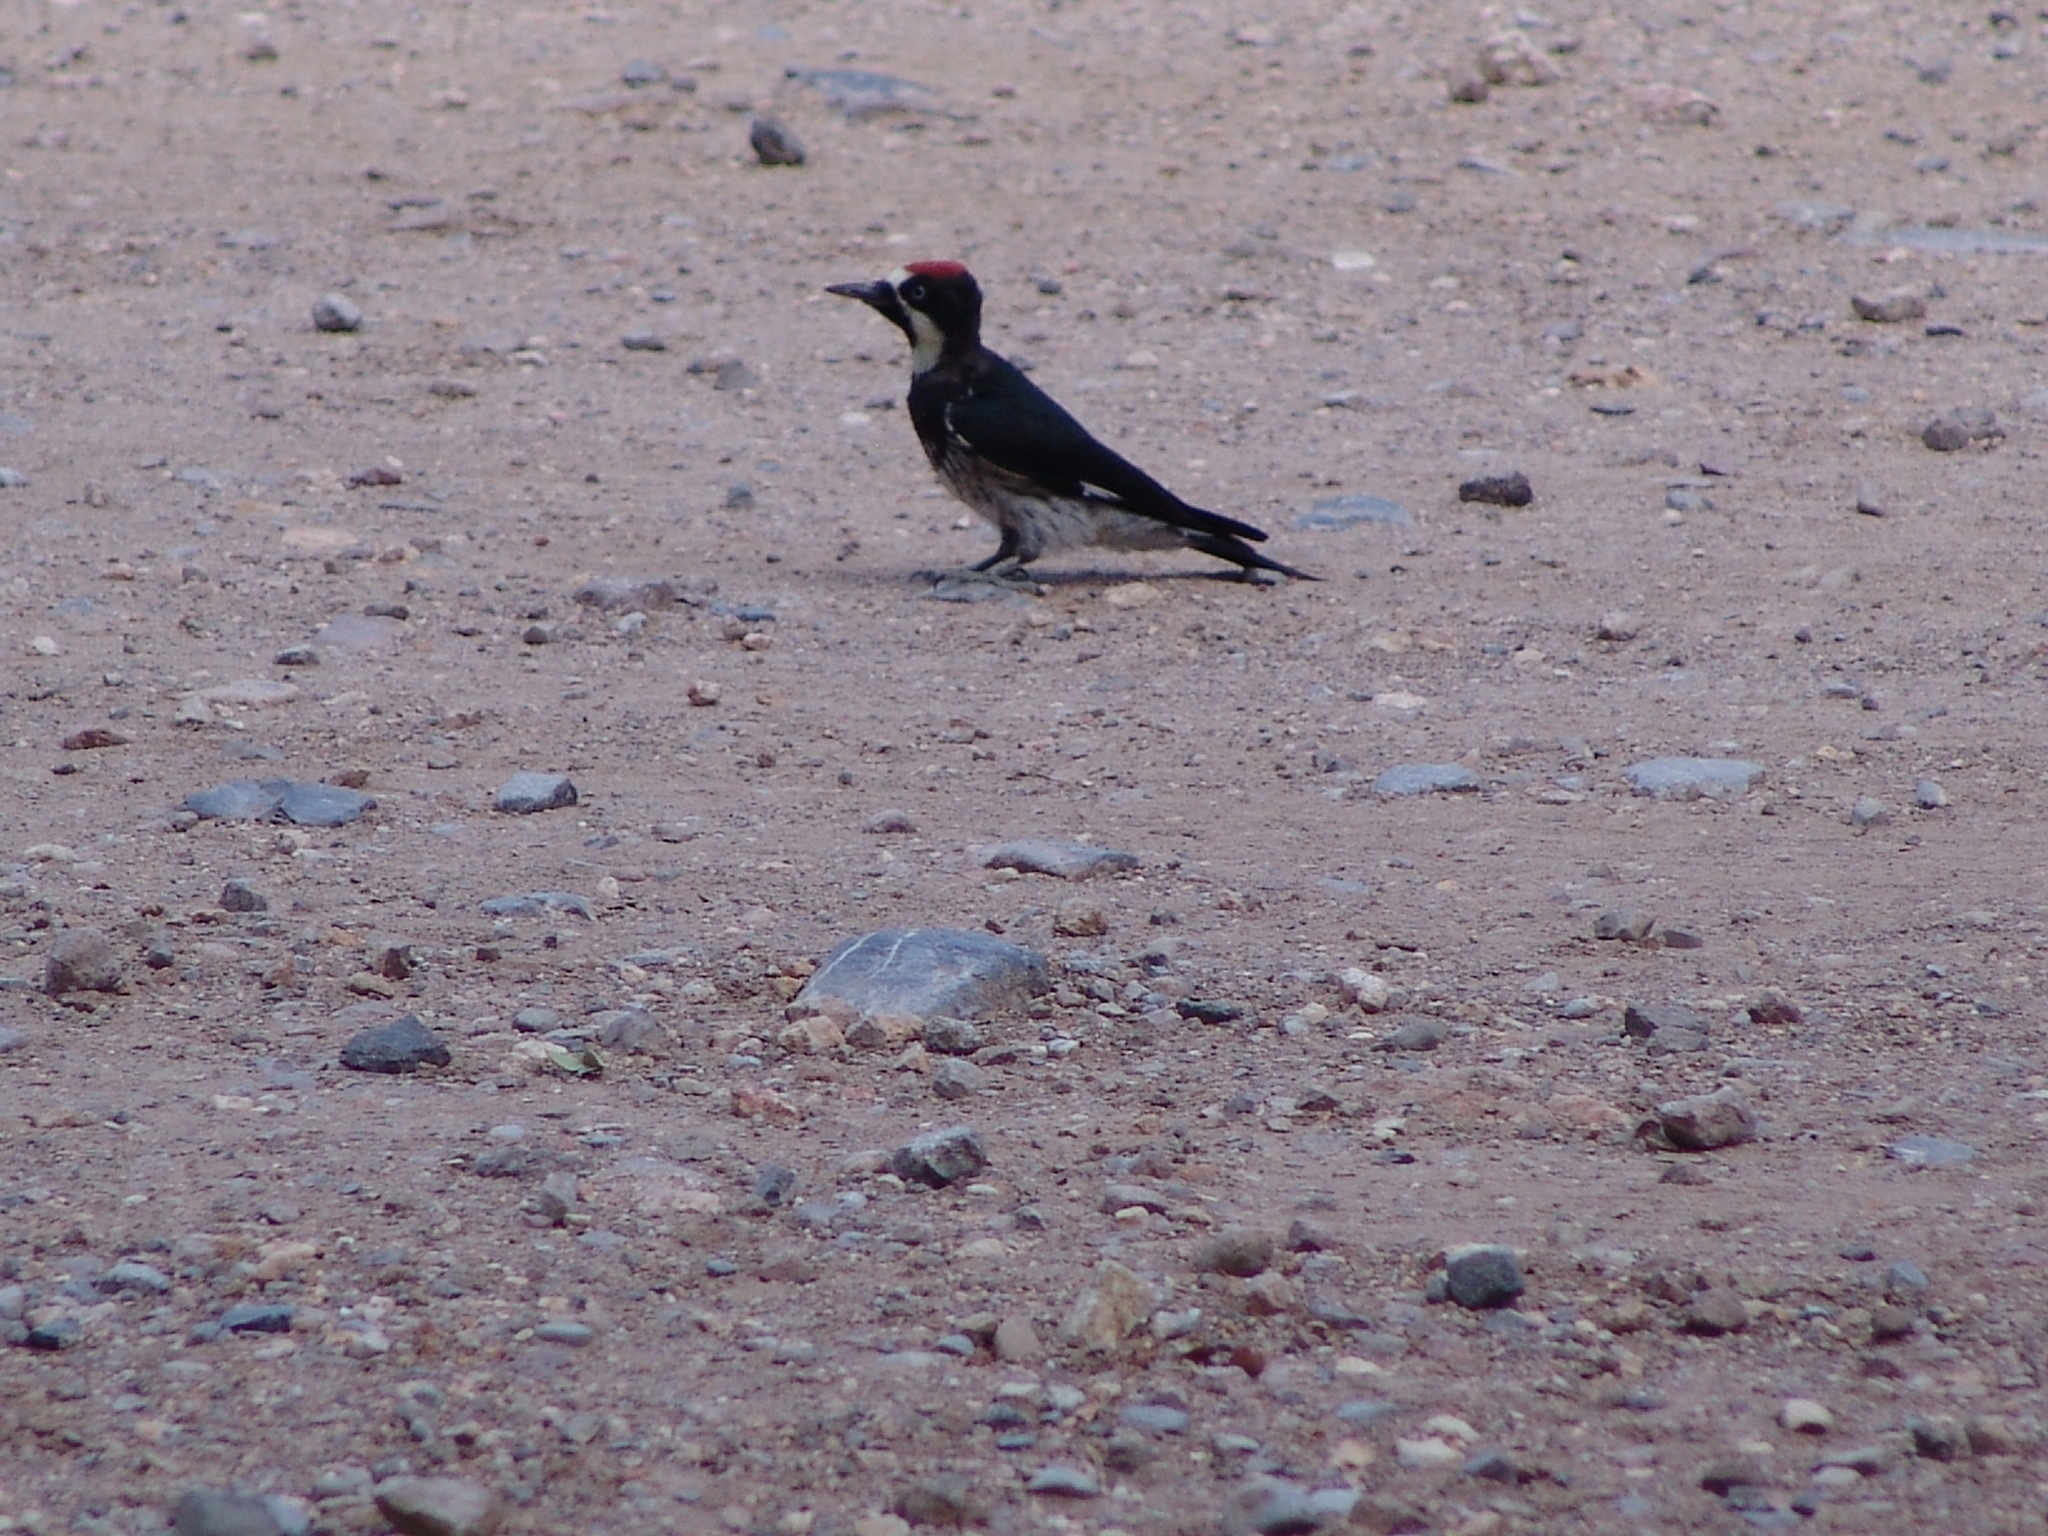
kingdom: Animalia
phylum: Chordata
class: Aves
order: Piciformes
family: Picidae
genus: Melanerpes
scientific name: Melanerpes formicivorus
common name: Acorn woodpecker
